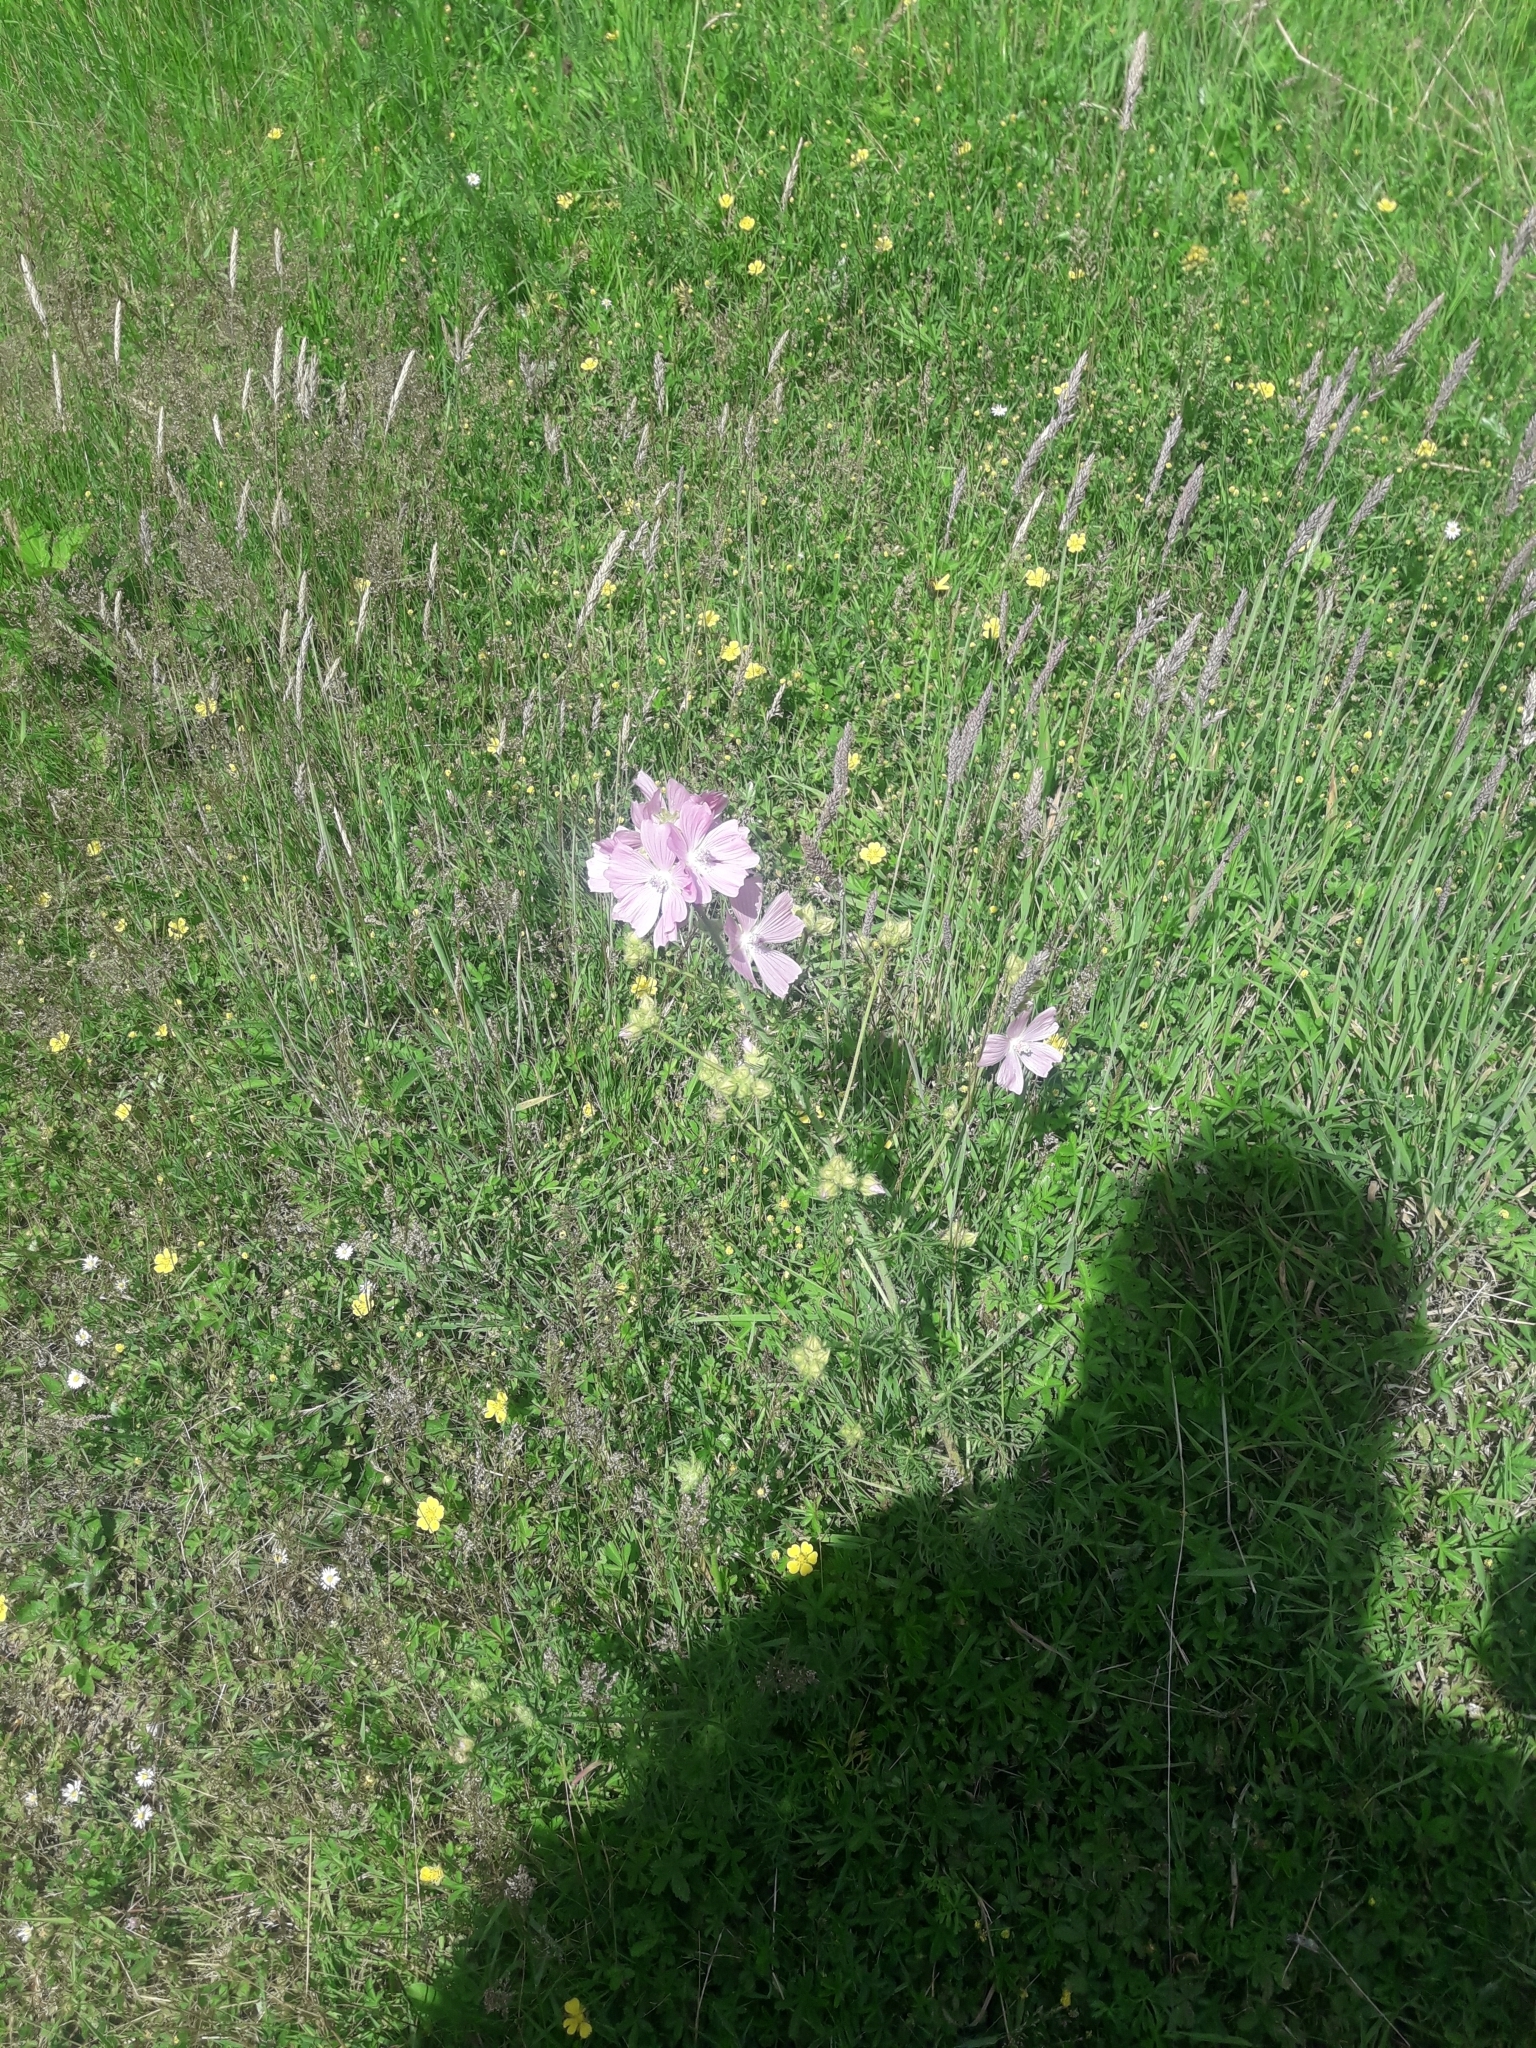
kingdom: Plantae
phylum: Tracheophyta
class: Magnoliopsida
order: Malvales
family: Malvaceae
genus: Malva
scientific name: Malva moschata
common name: Musk mallow
